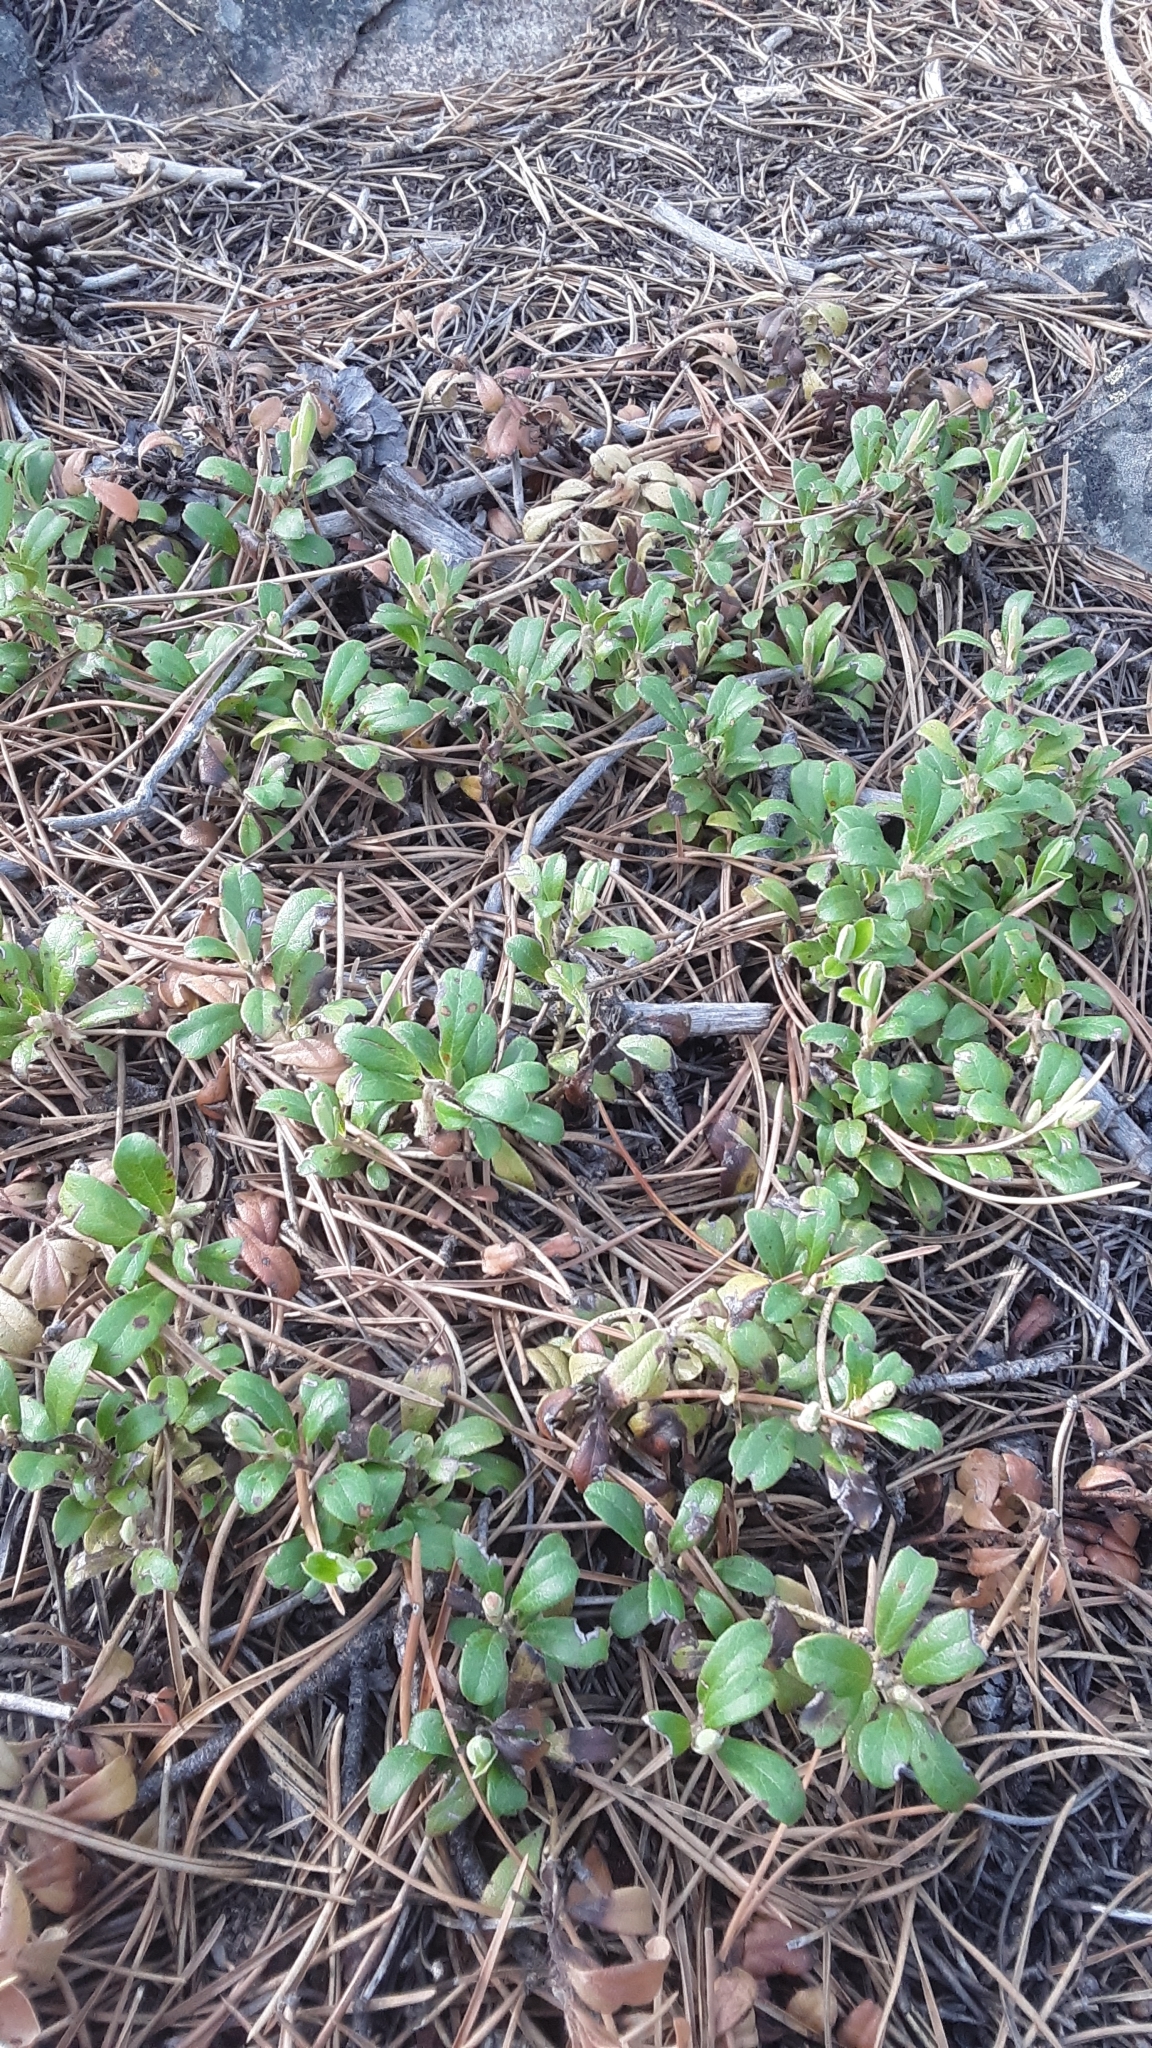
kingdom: Plantae
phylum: Tracheophyta
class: Magnoliopsida
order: Ericales
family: Ericaceae
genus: Arctostaphylos
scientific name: Arctostaphylos uva-ursi
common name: Bearberry
